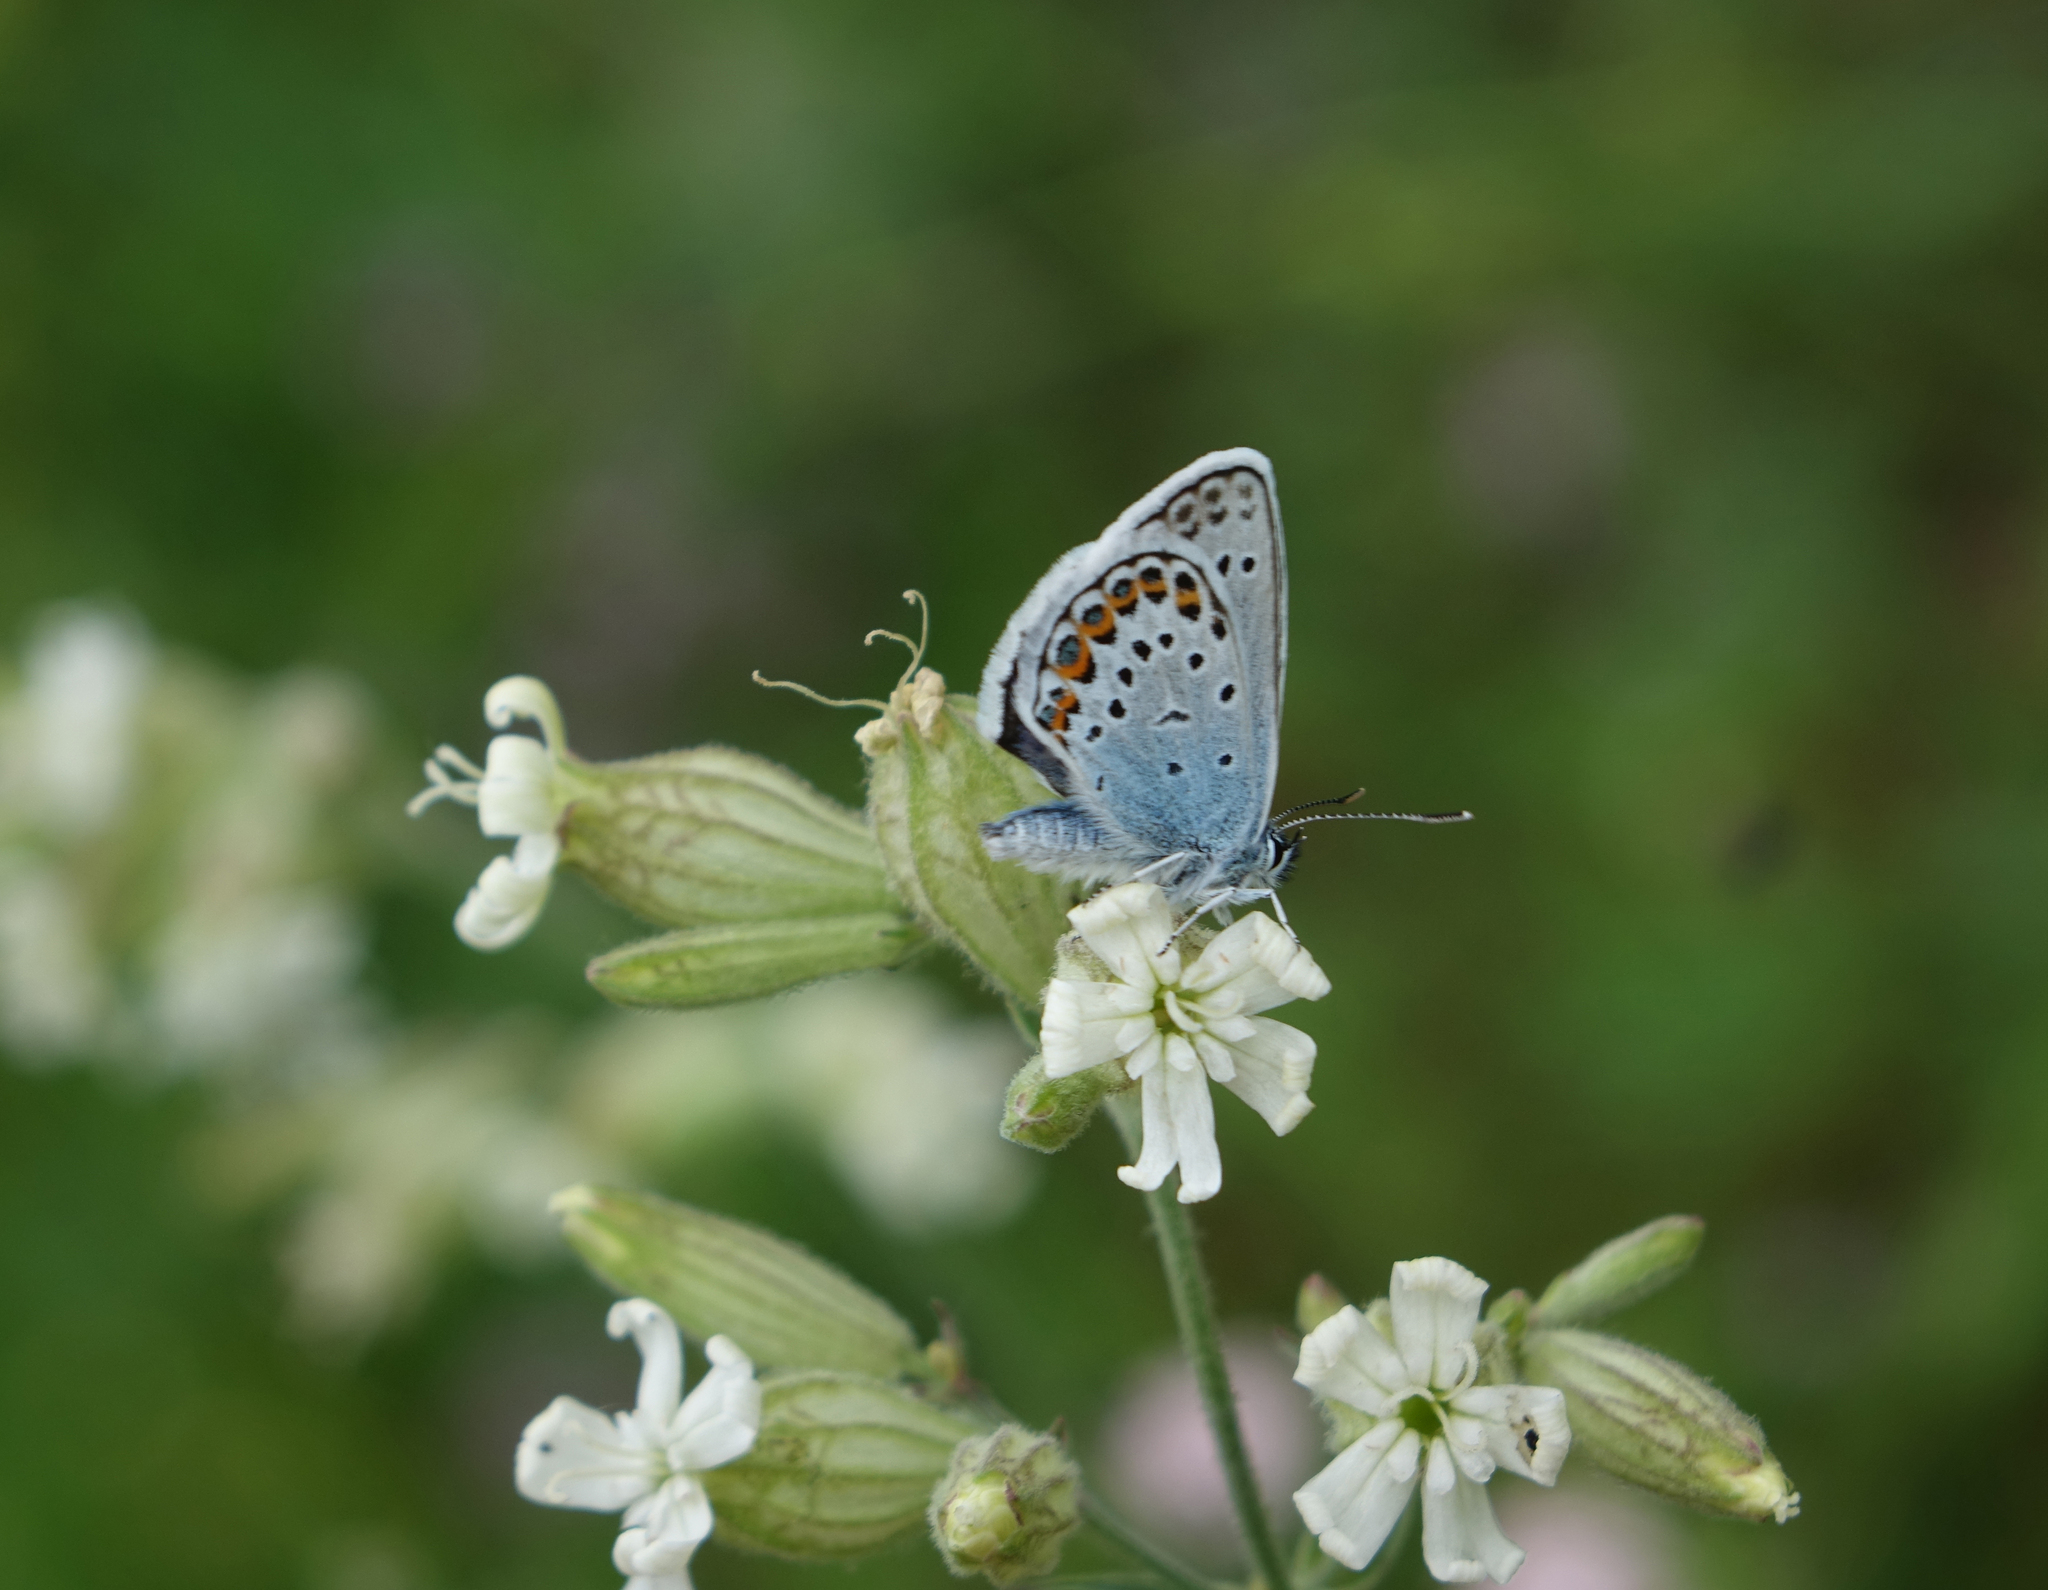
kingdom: Plantae
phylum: Tracheophyta
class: Magnoliopsida
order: Caryophyllales
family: Caryophyllaceae
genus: Silene
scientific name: Silene vulgaris
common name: Bladder campion
